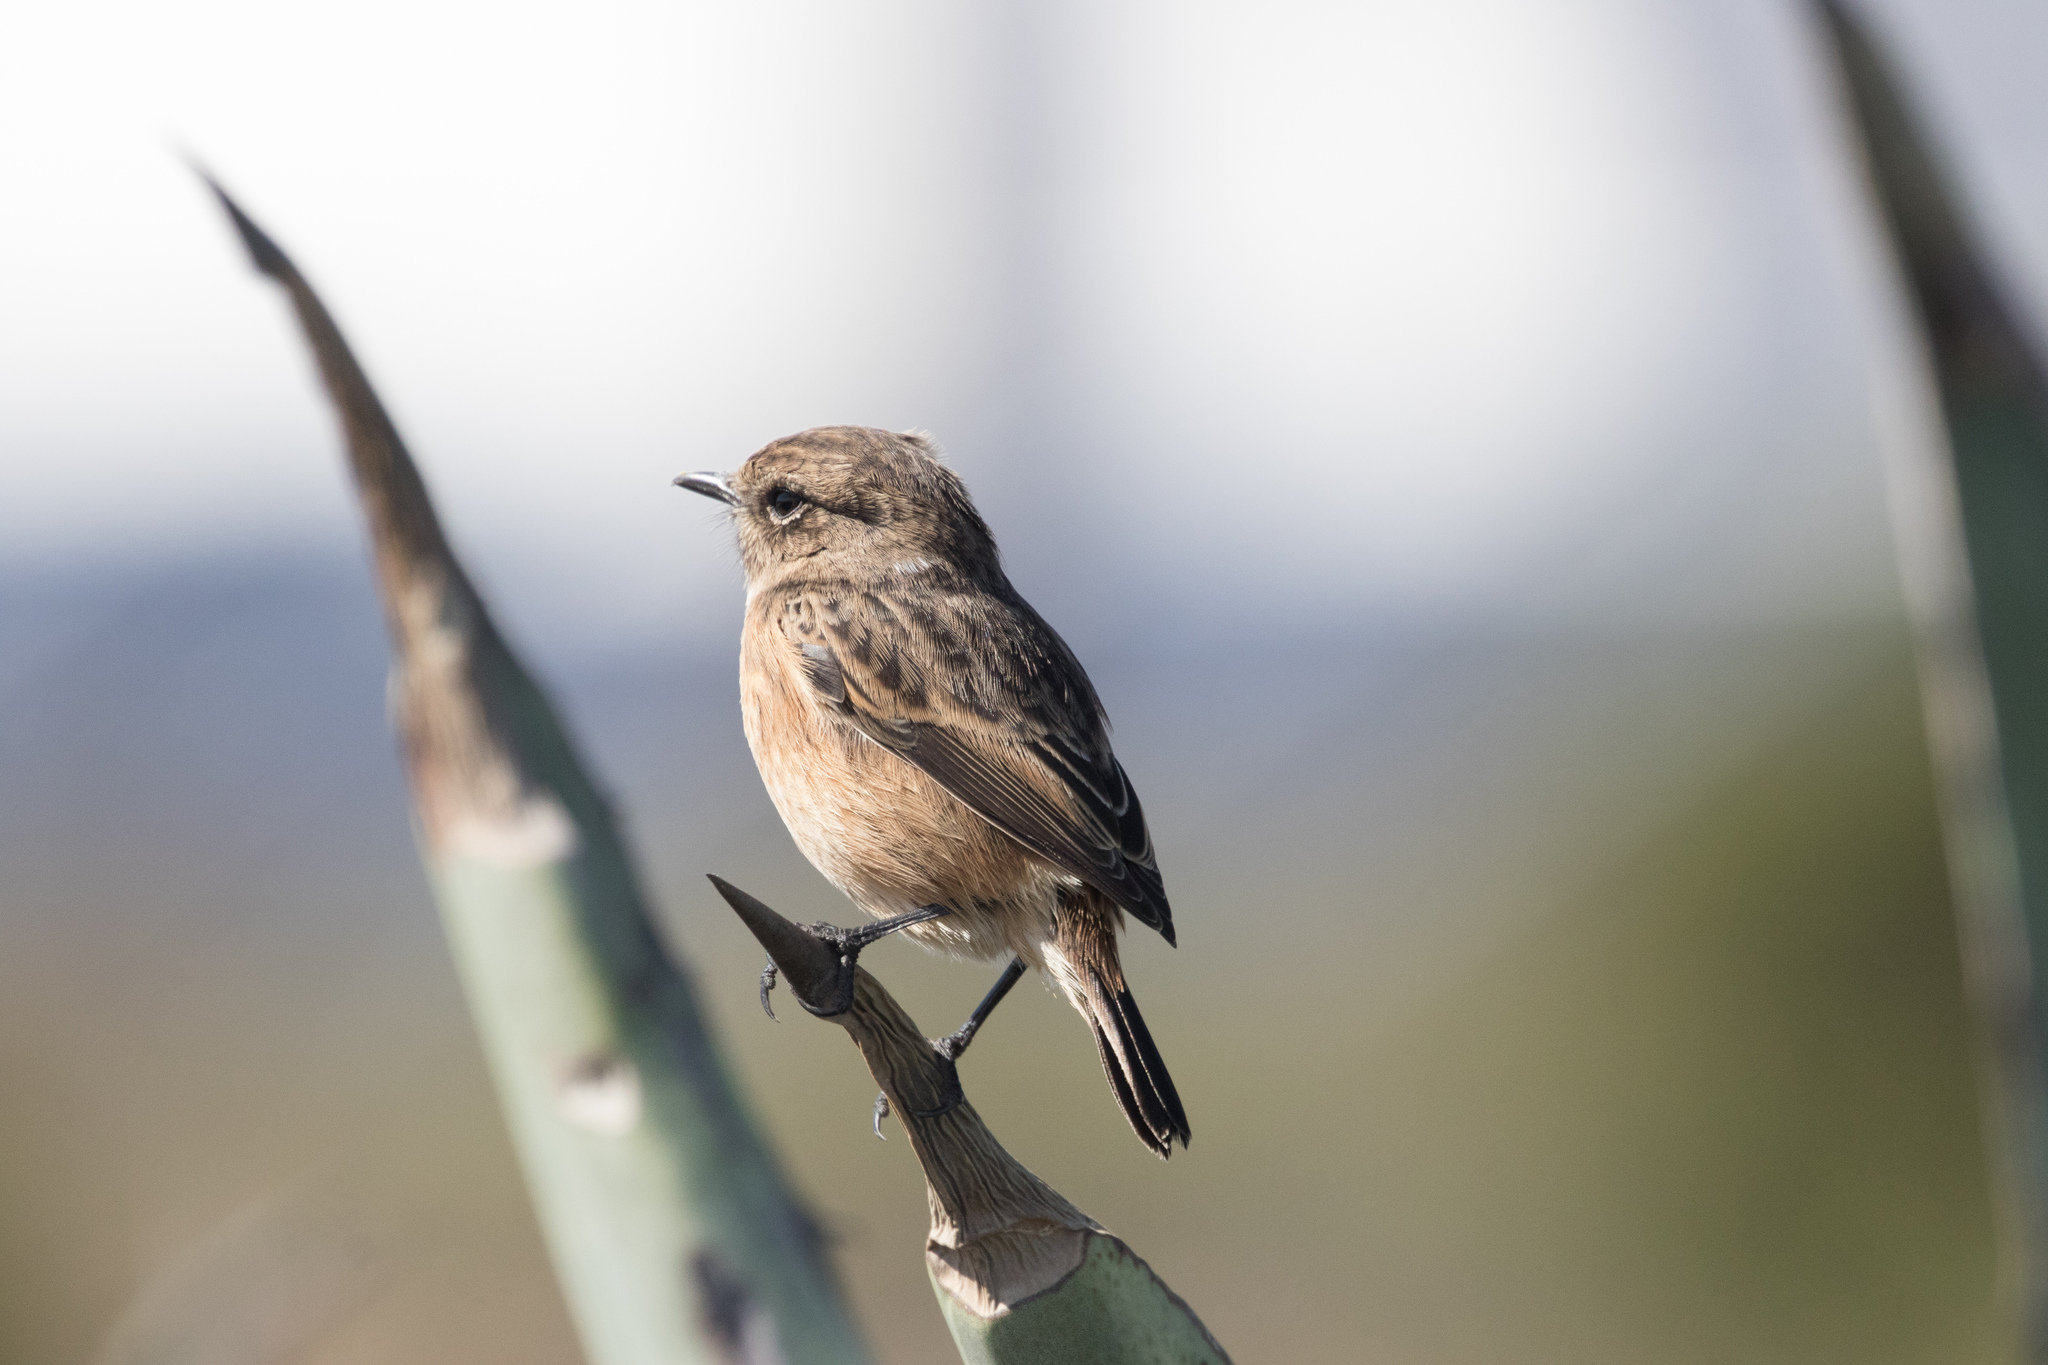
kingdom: Animalia
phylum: Chordata
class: Aves
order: Passeriformes
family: Muscicapidae
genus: Saxicola
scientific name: Saxicola rubicola
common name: European stonechat
